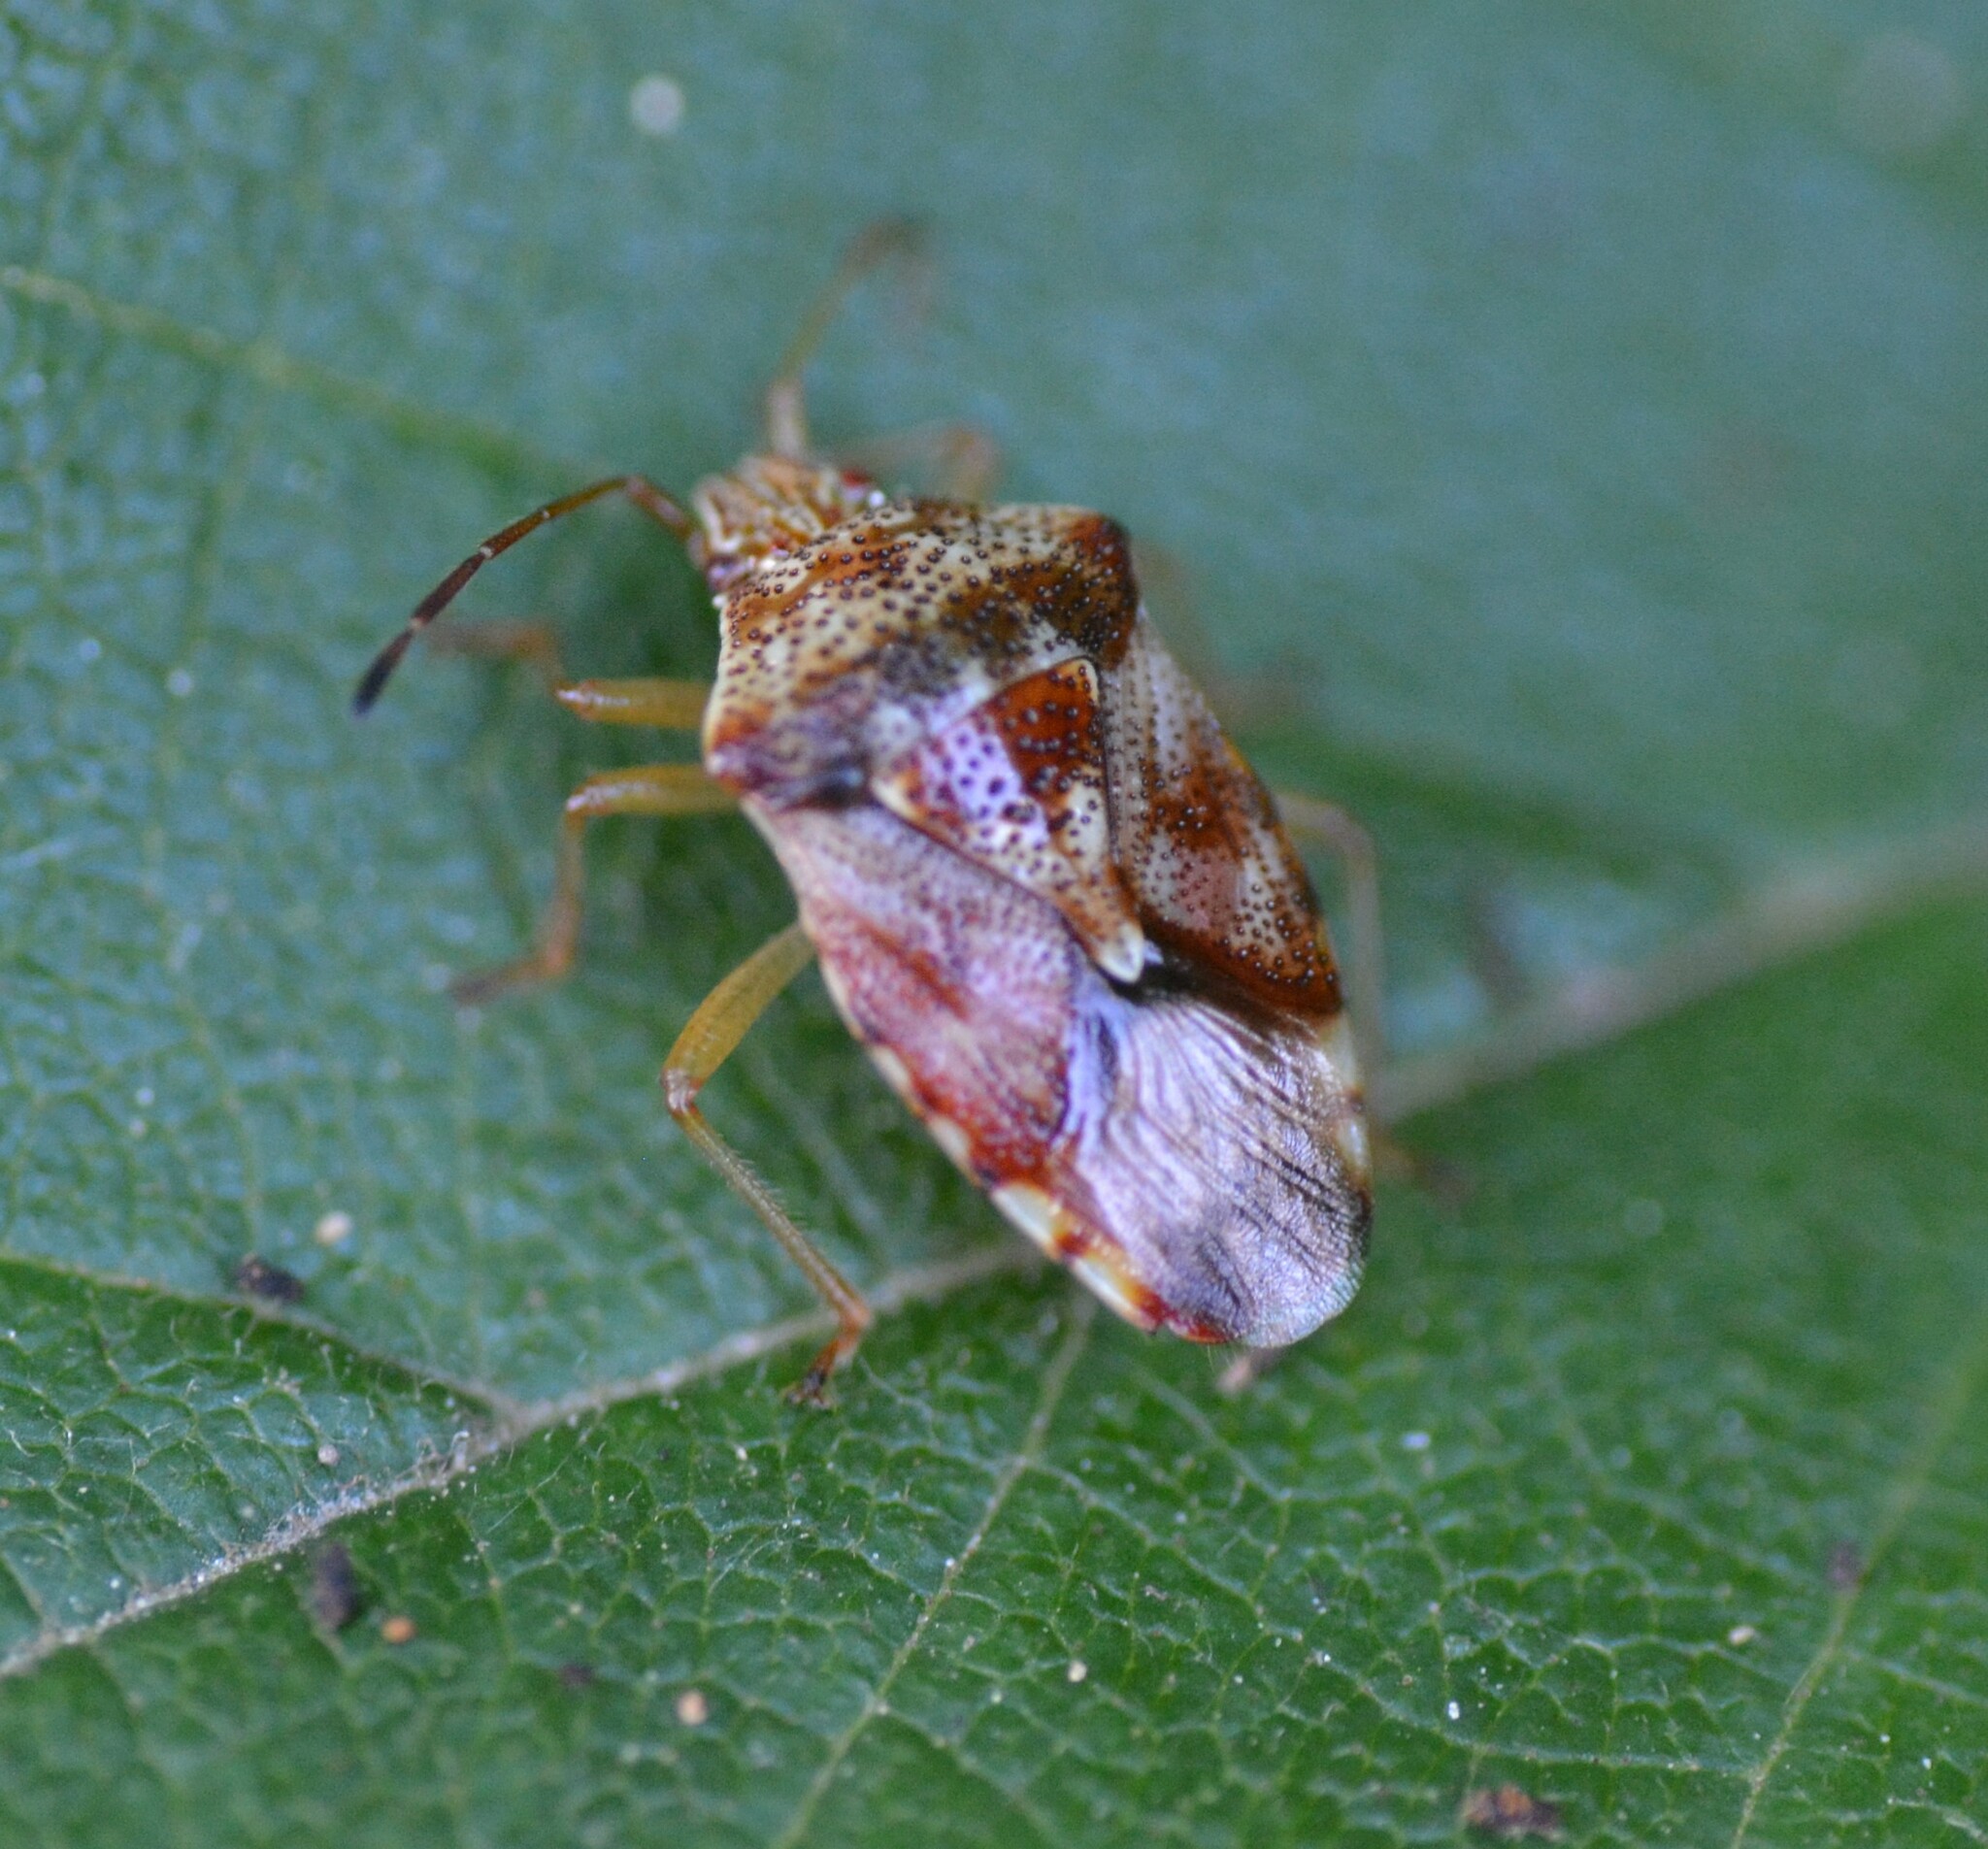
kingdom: Animalia
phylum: Arthropoda
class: Insecta
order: Hemiptera
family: Acanthosomatidae
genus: Elasmucha
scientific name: Elasmucha lateralis
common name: Shield bug
